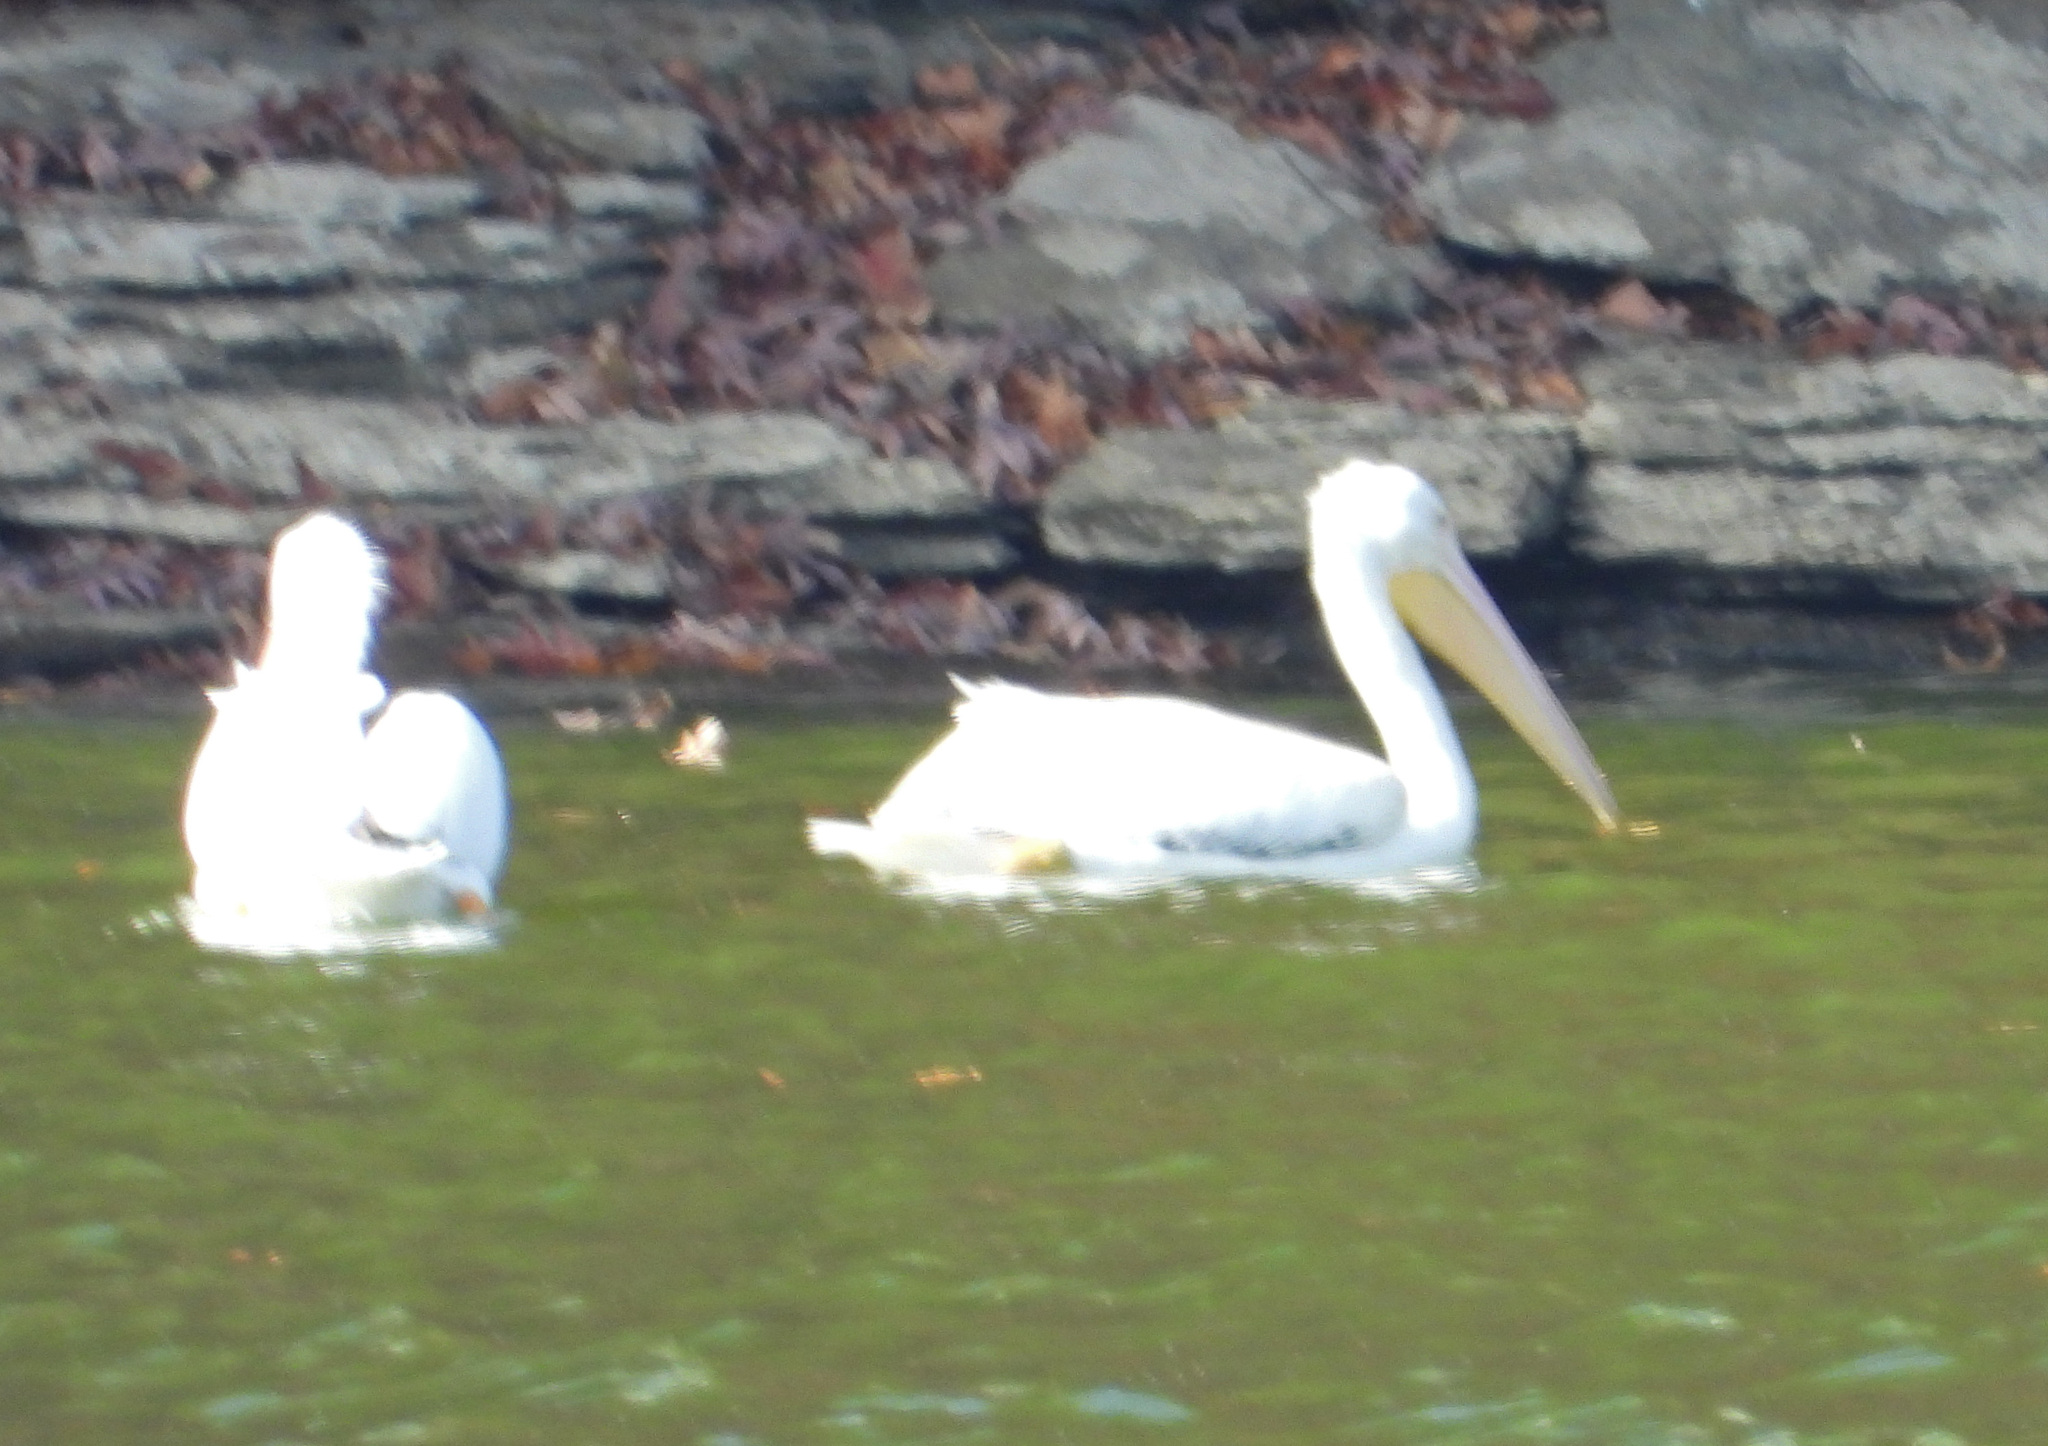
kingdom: Animalia
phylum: Chordata
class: Aves
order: Pelecaniformes
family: Pelecanidae
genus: Pelecanus
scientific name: Pelecanus erythrorhynchos
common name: American white pelican
